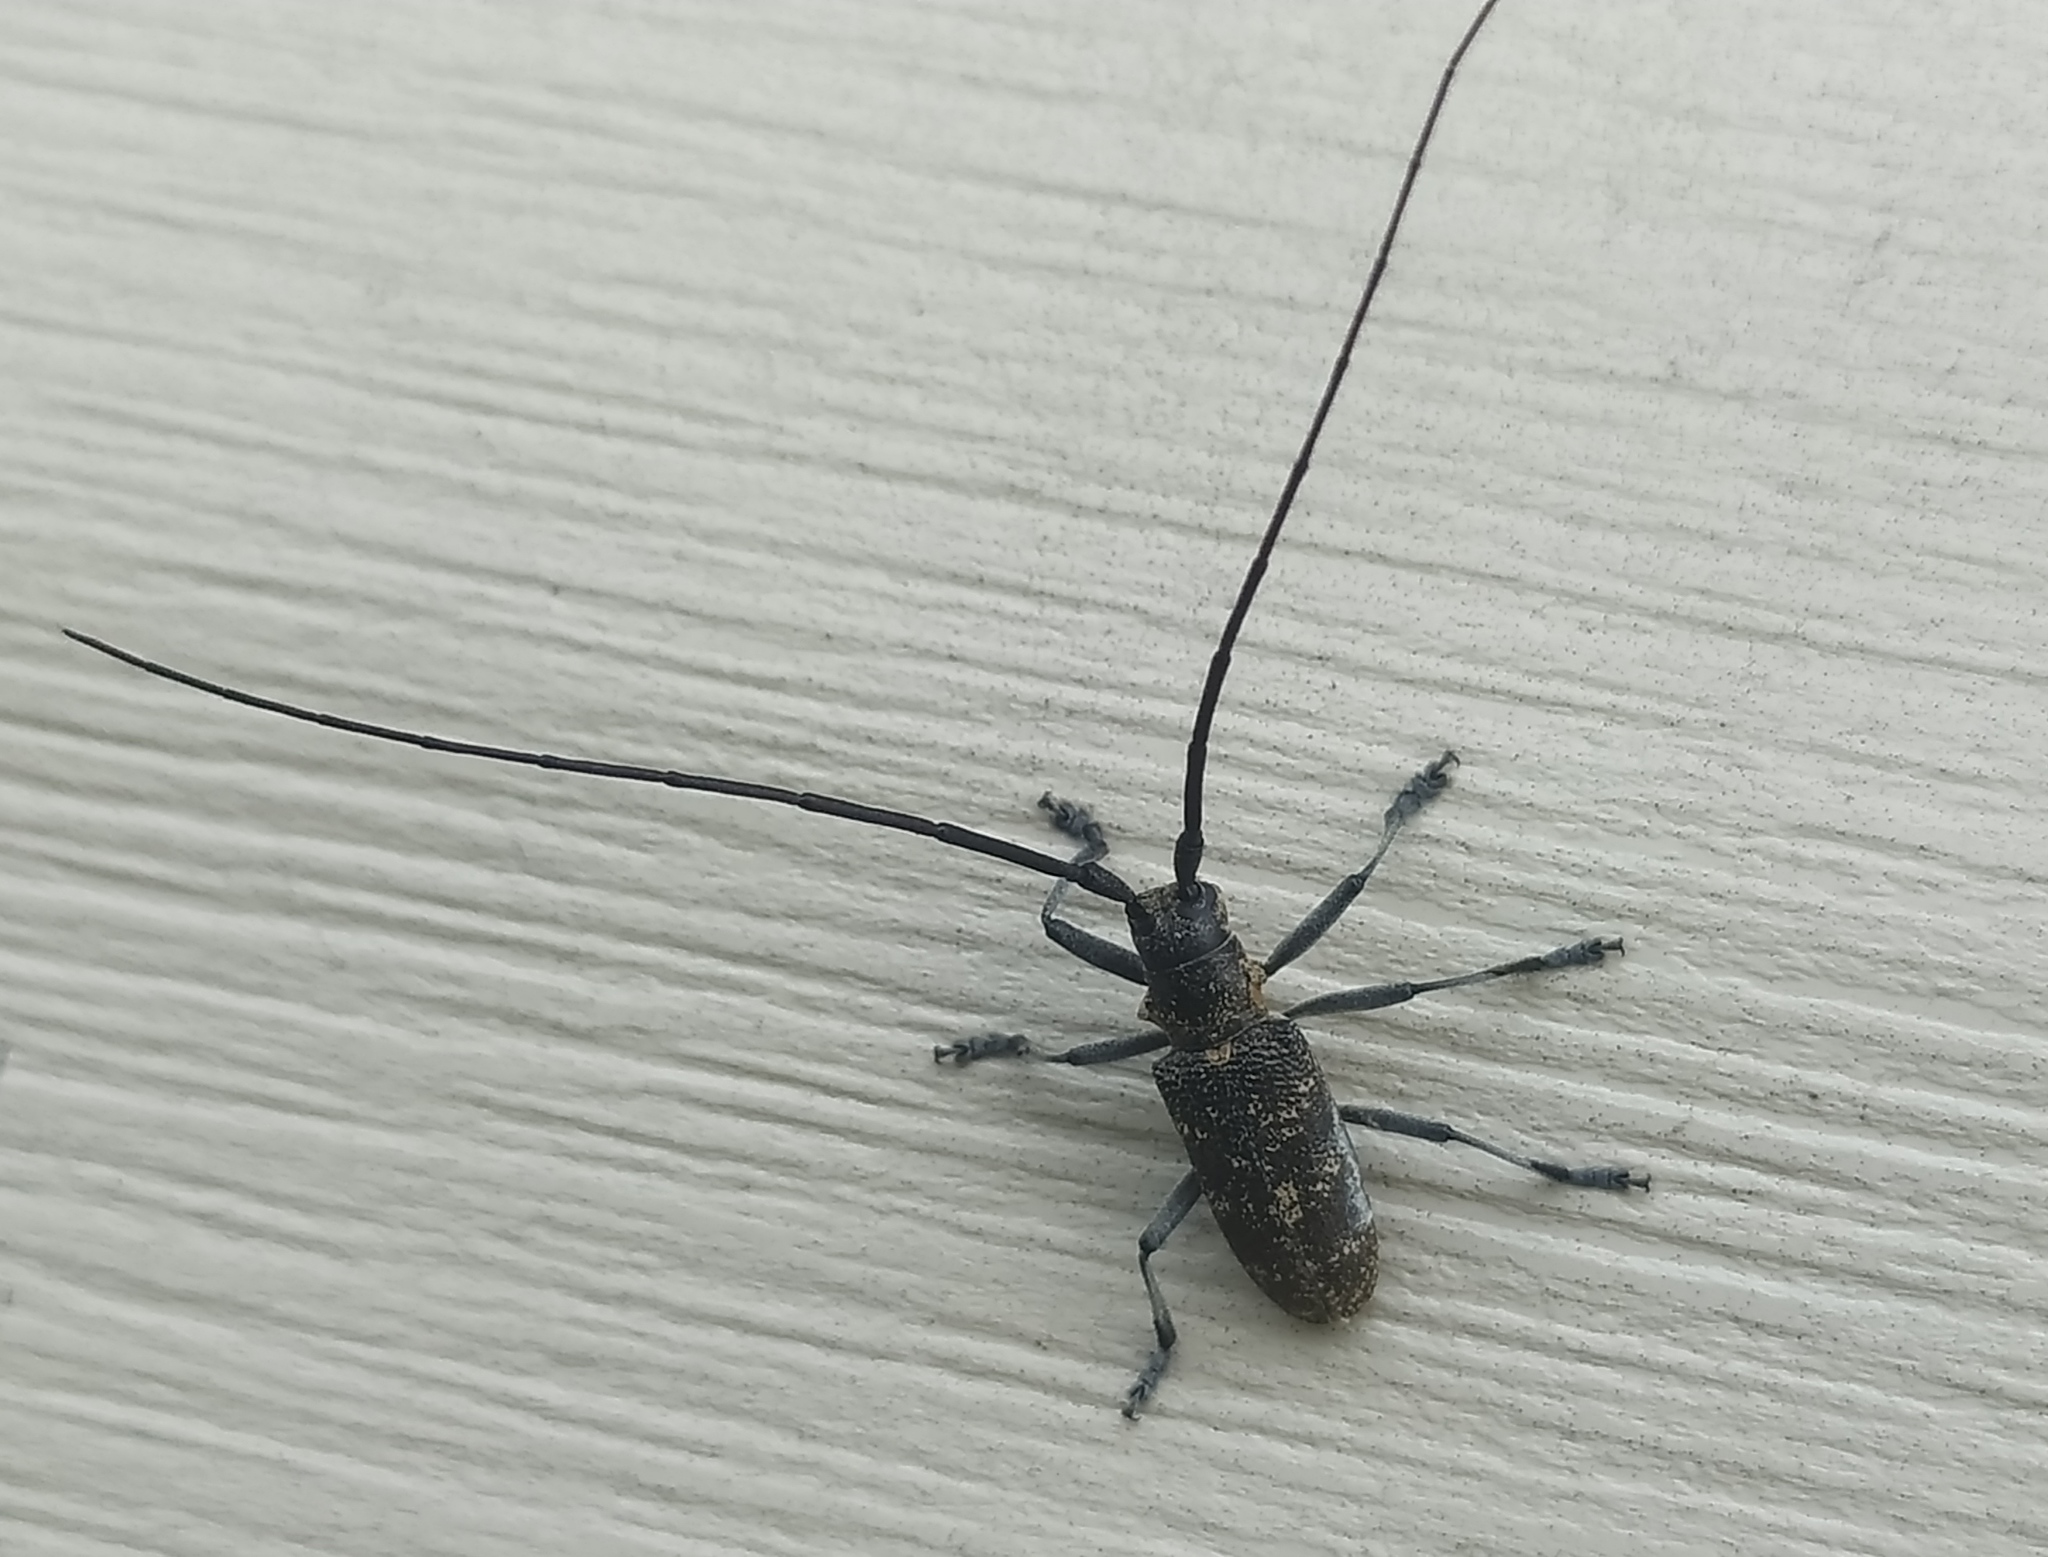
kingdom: Animalia
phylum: Arthropoda
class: Insecta
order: Coleoptera
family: Cerambycidae
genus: Monochamus
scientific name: Monochamus sutor
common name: Pine sawyer
